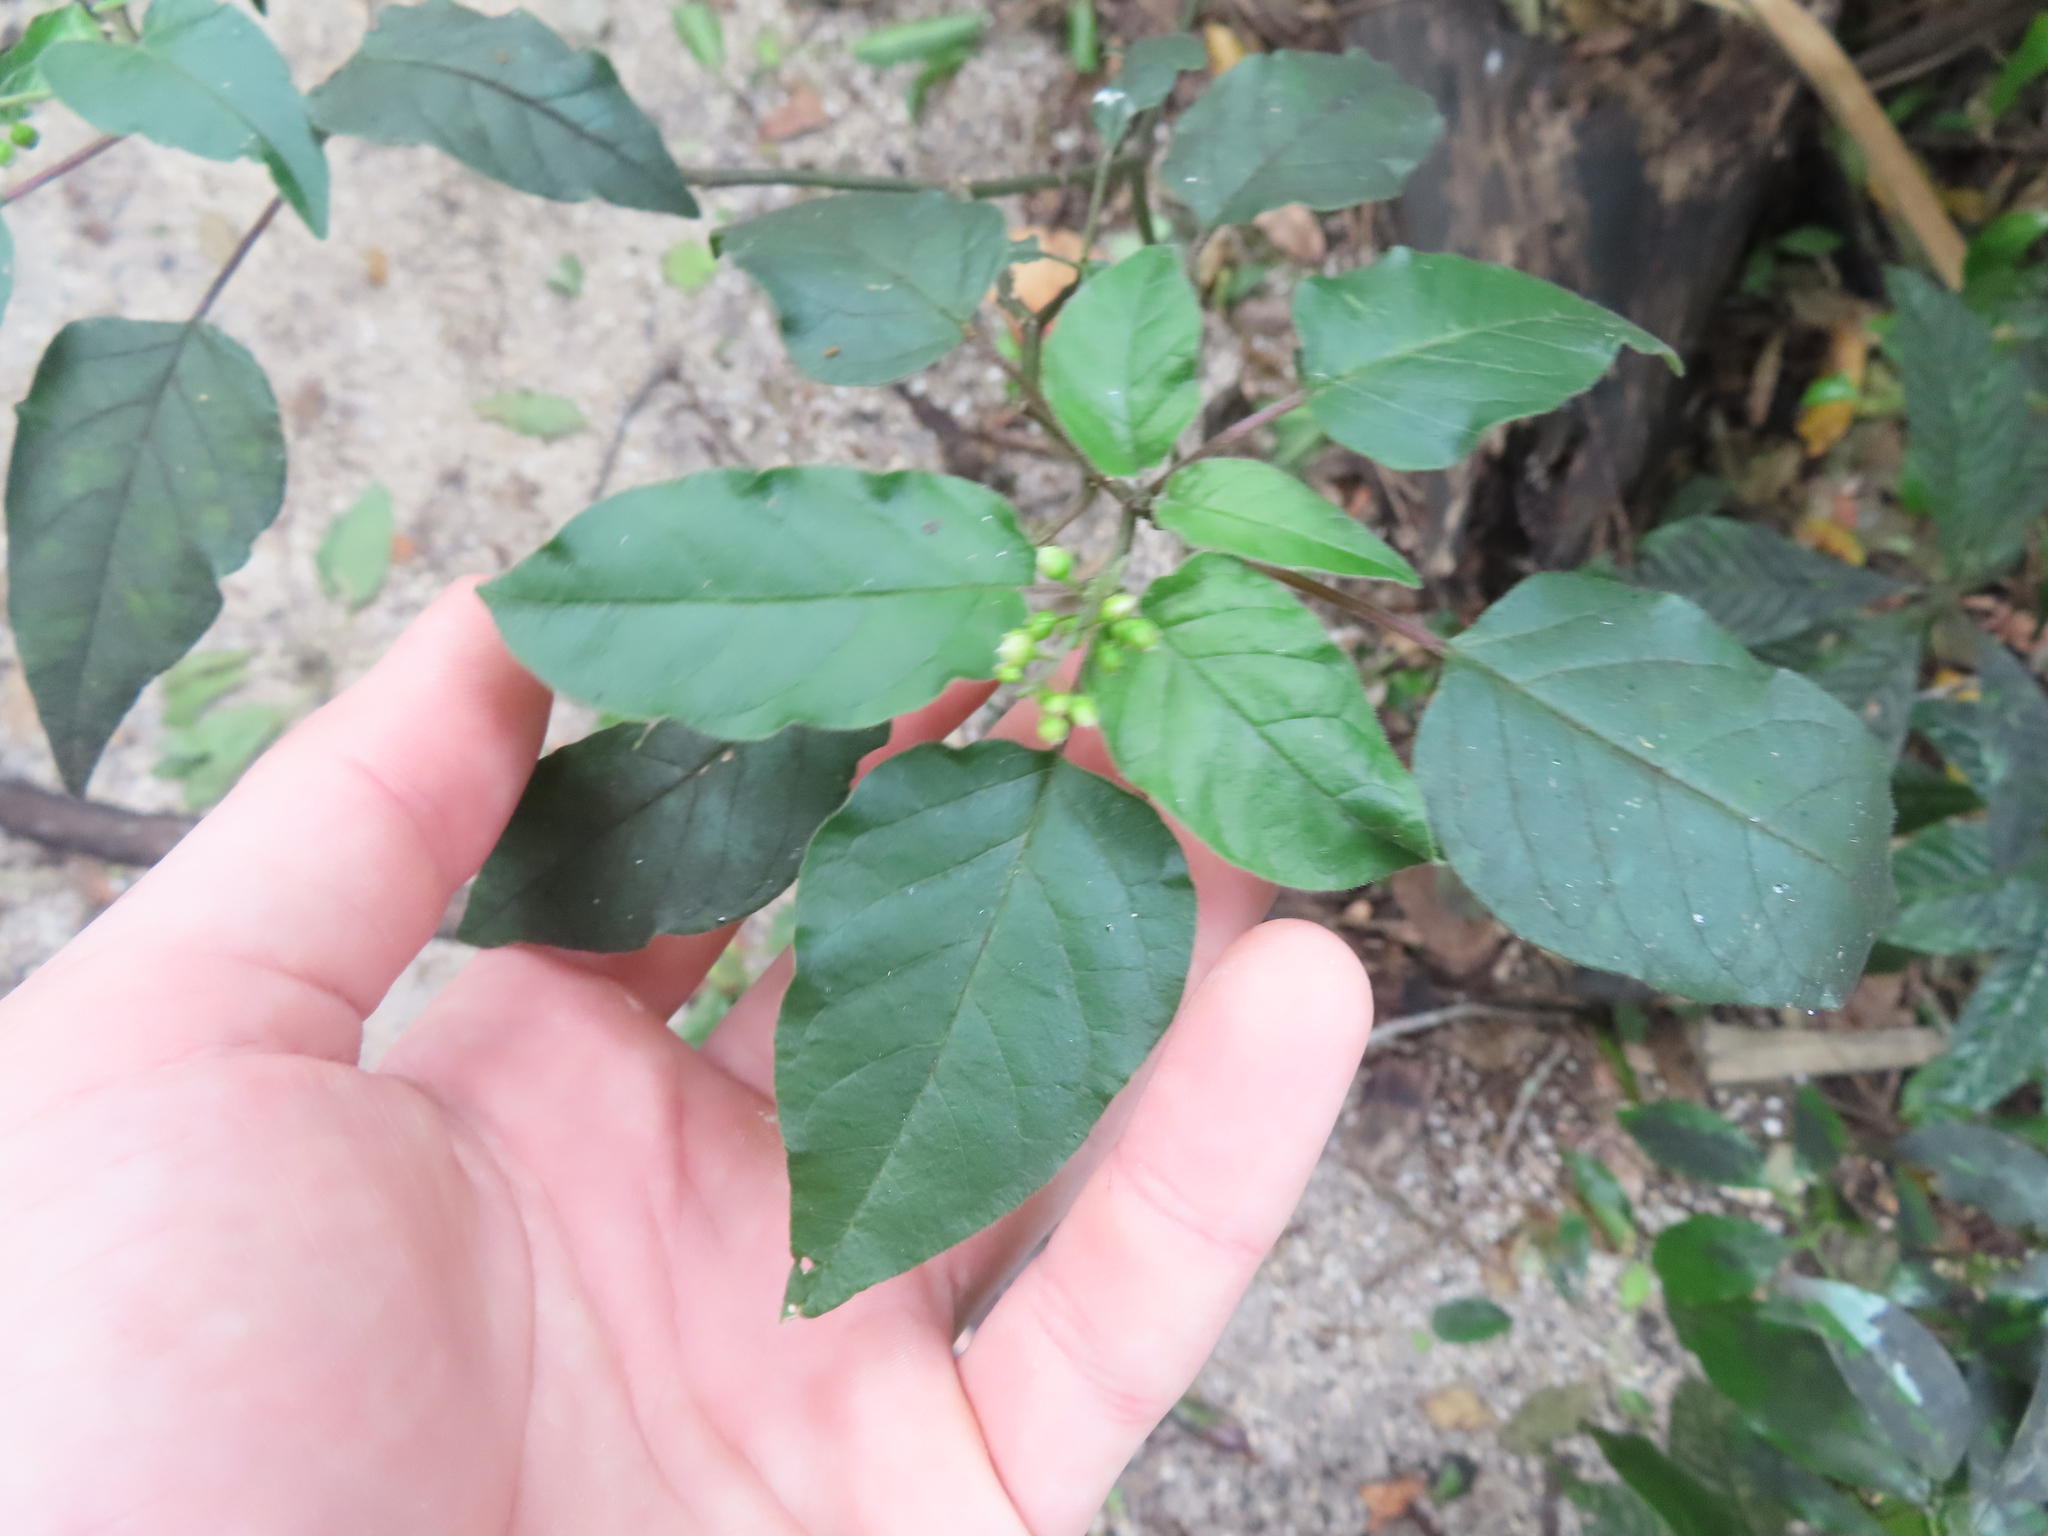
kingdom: Plantae
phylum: Tracheophyta
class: Magnoliopsida
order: Caryophyllales
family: Phytolaccaceae
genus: Rivina
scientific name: Rivina humilis
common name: Rougeplant
